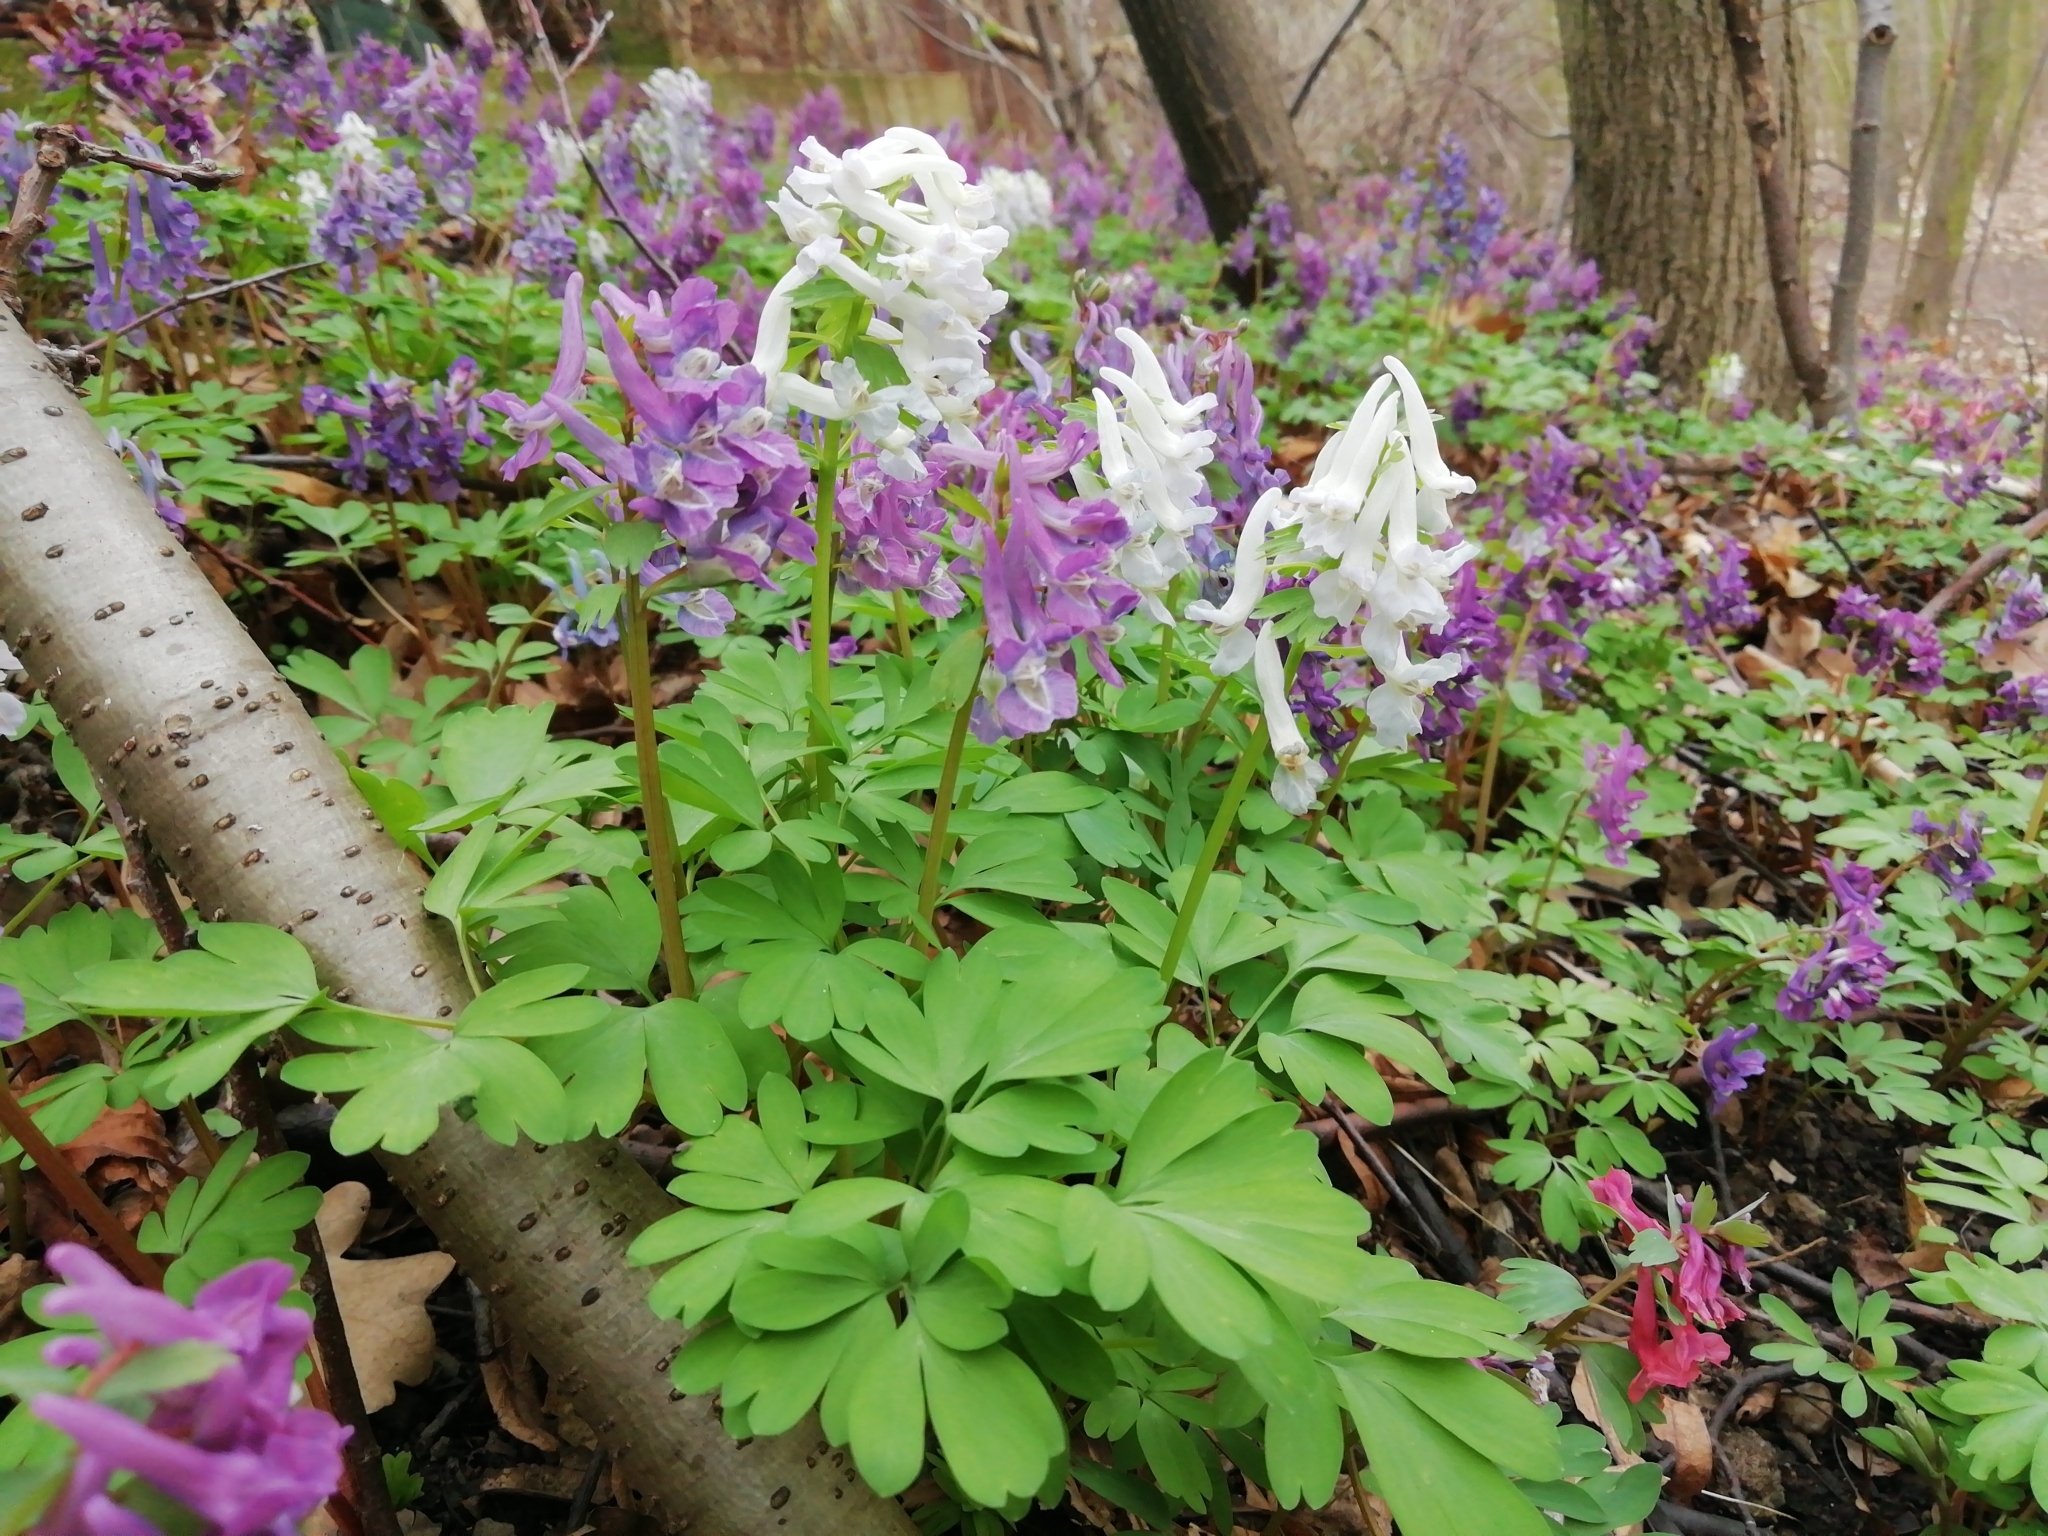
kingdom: Plantae
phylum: Tracheophyta
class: Magnoliopsida
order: Ranunculales
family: Papaveraceae
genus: Corydalis
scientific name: Corydalis solida
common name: Bird-in-a-bush
